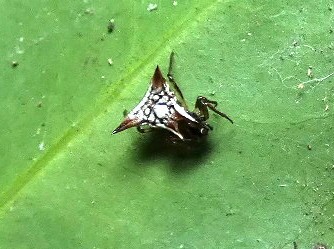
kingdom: Animalia
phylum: Arthropoda
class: Arachnida
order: Araneae
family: Araneidae
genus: Micrathena
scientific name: Micrathena evansi
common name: Orb weavers
